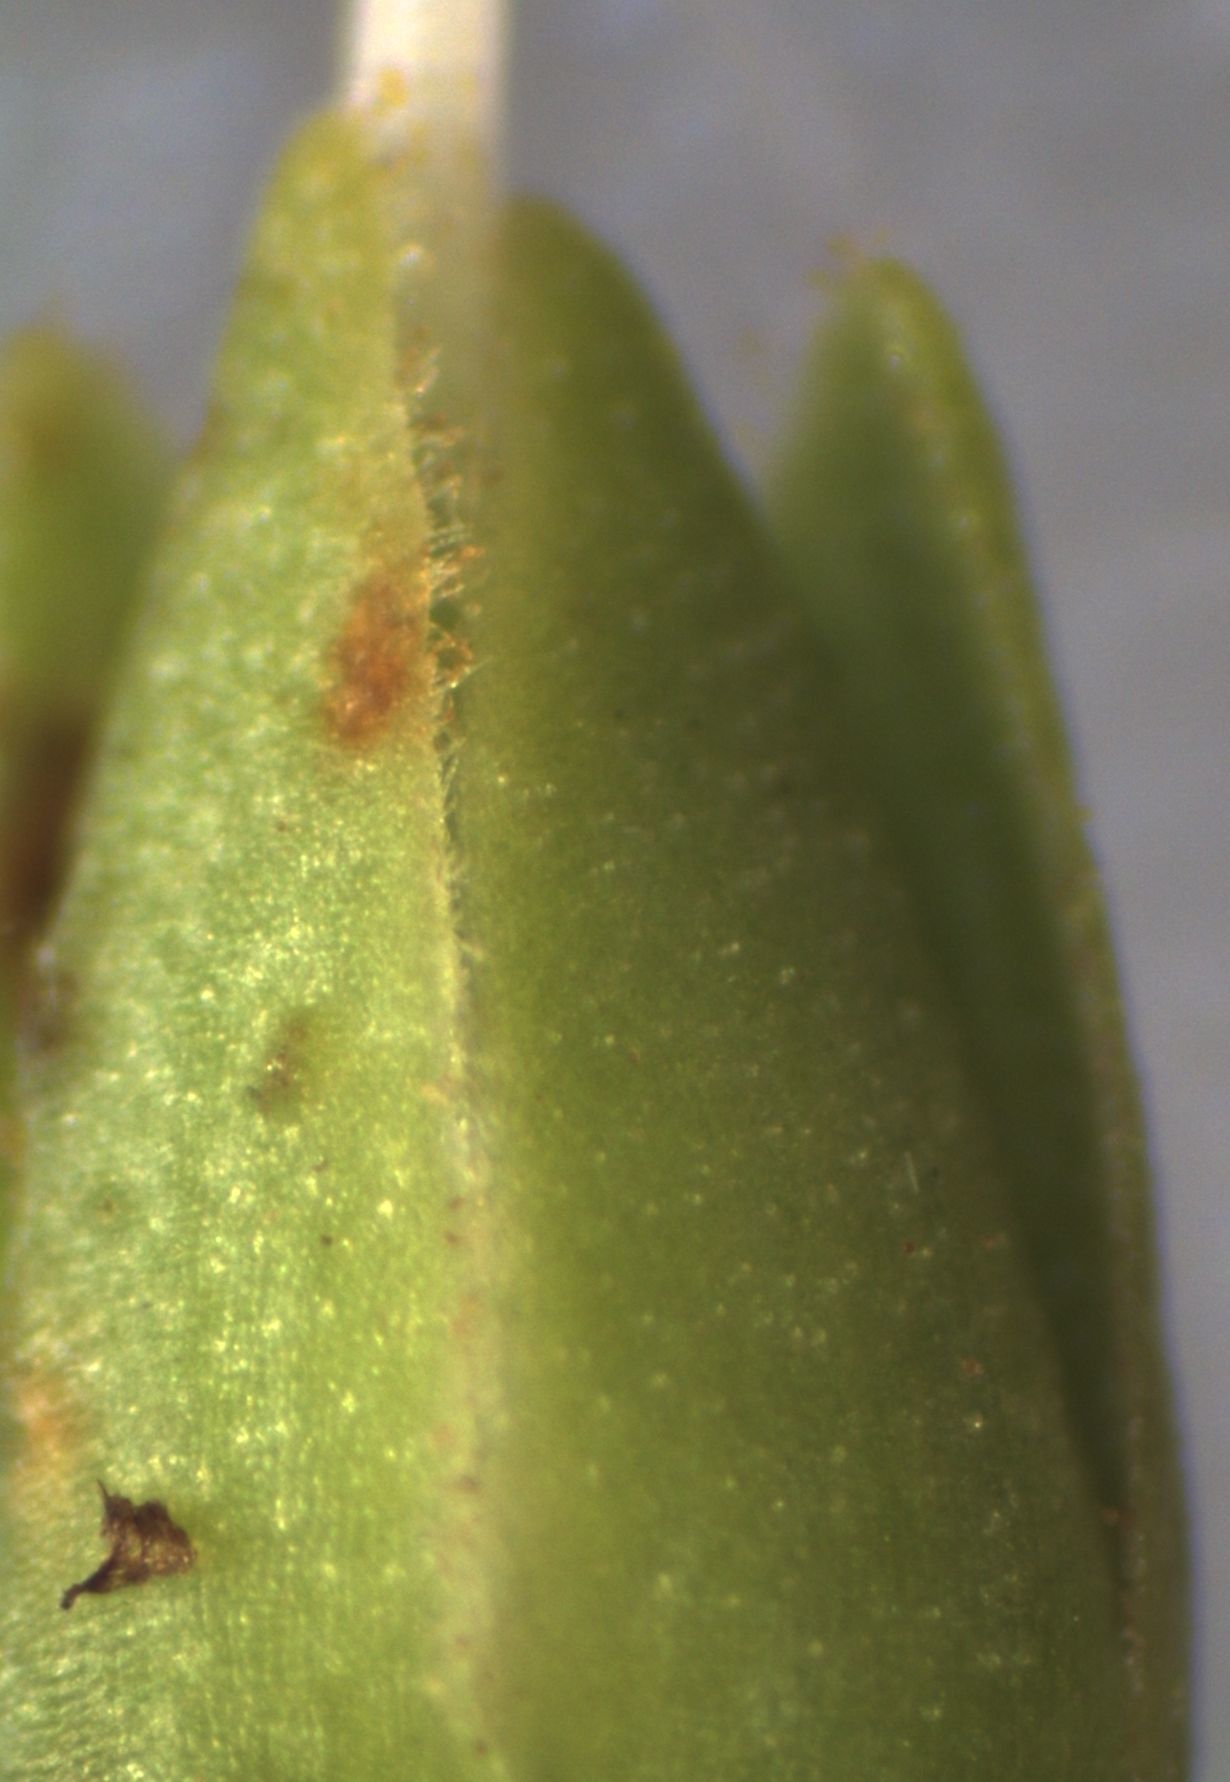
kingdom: Plantae
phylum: Tracheophyta
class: Magnoliopsida
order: Lamiales
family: Plantaginaceae
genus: Veronica
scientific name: Veronica lewisii
